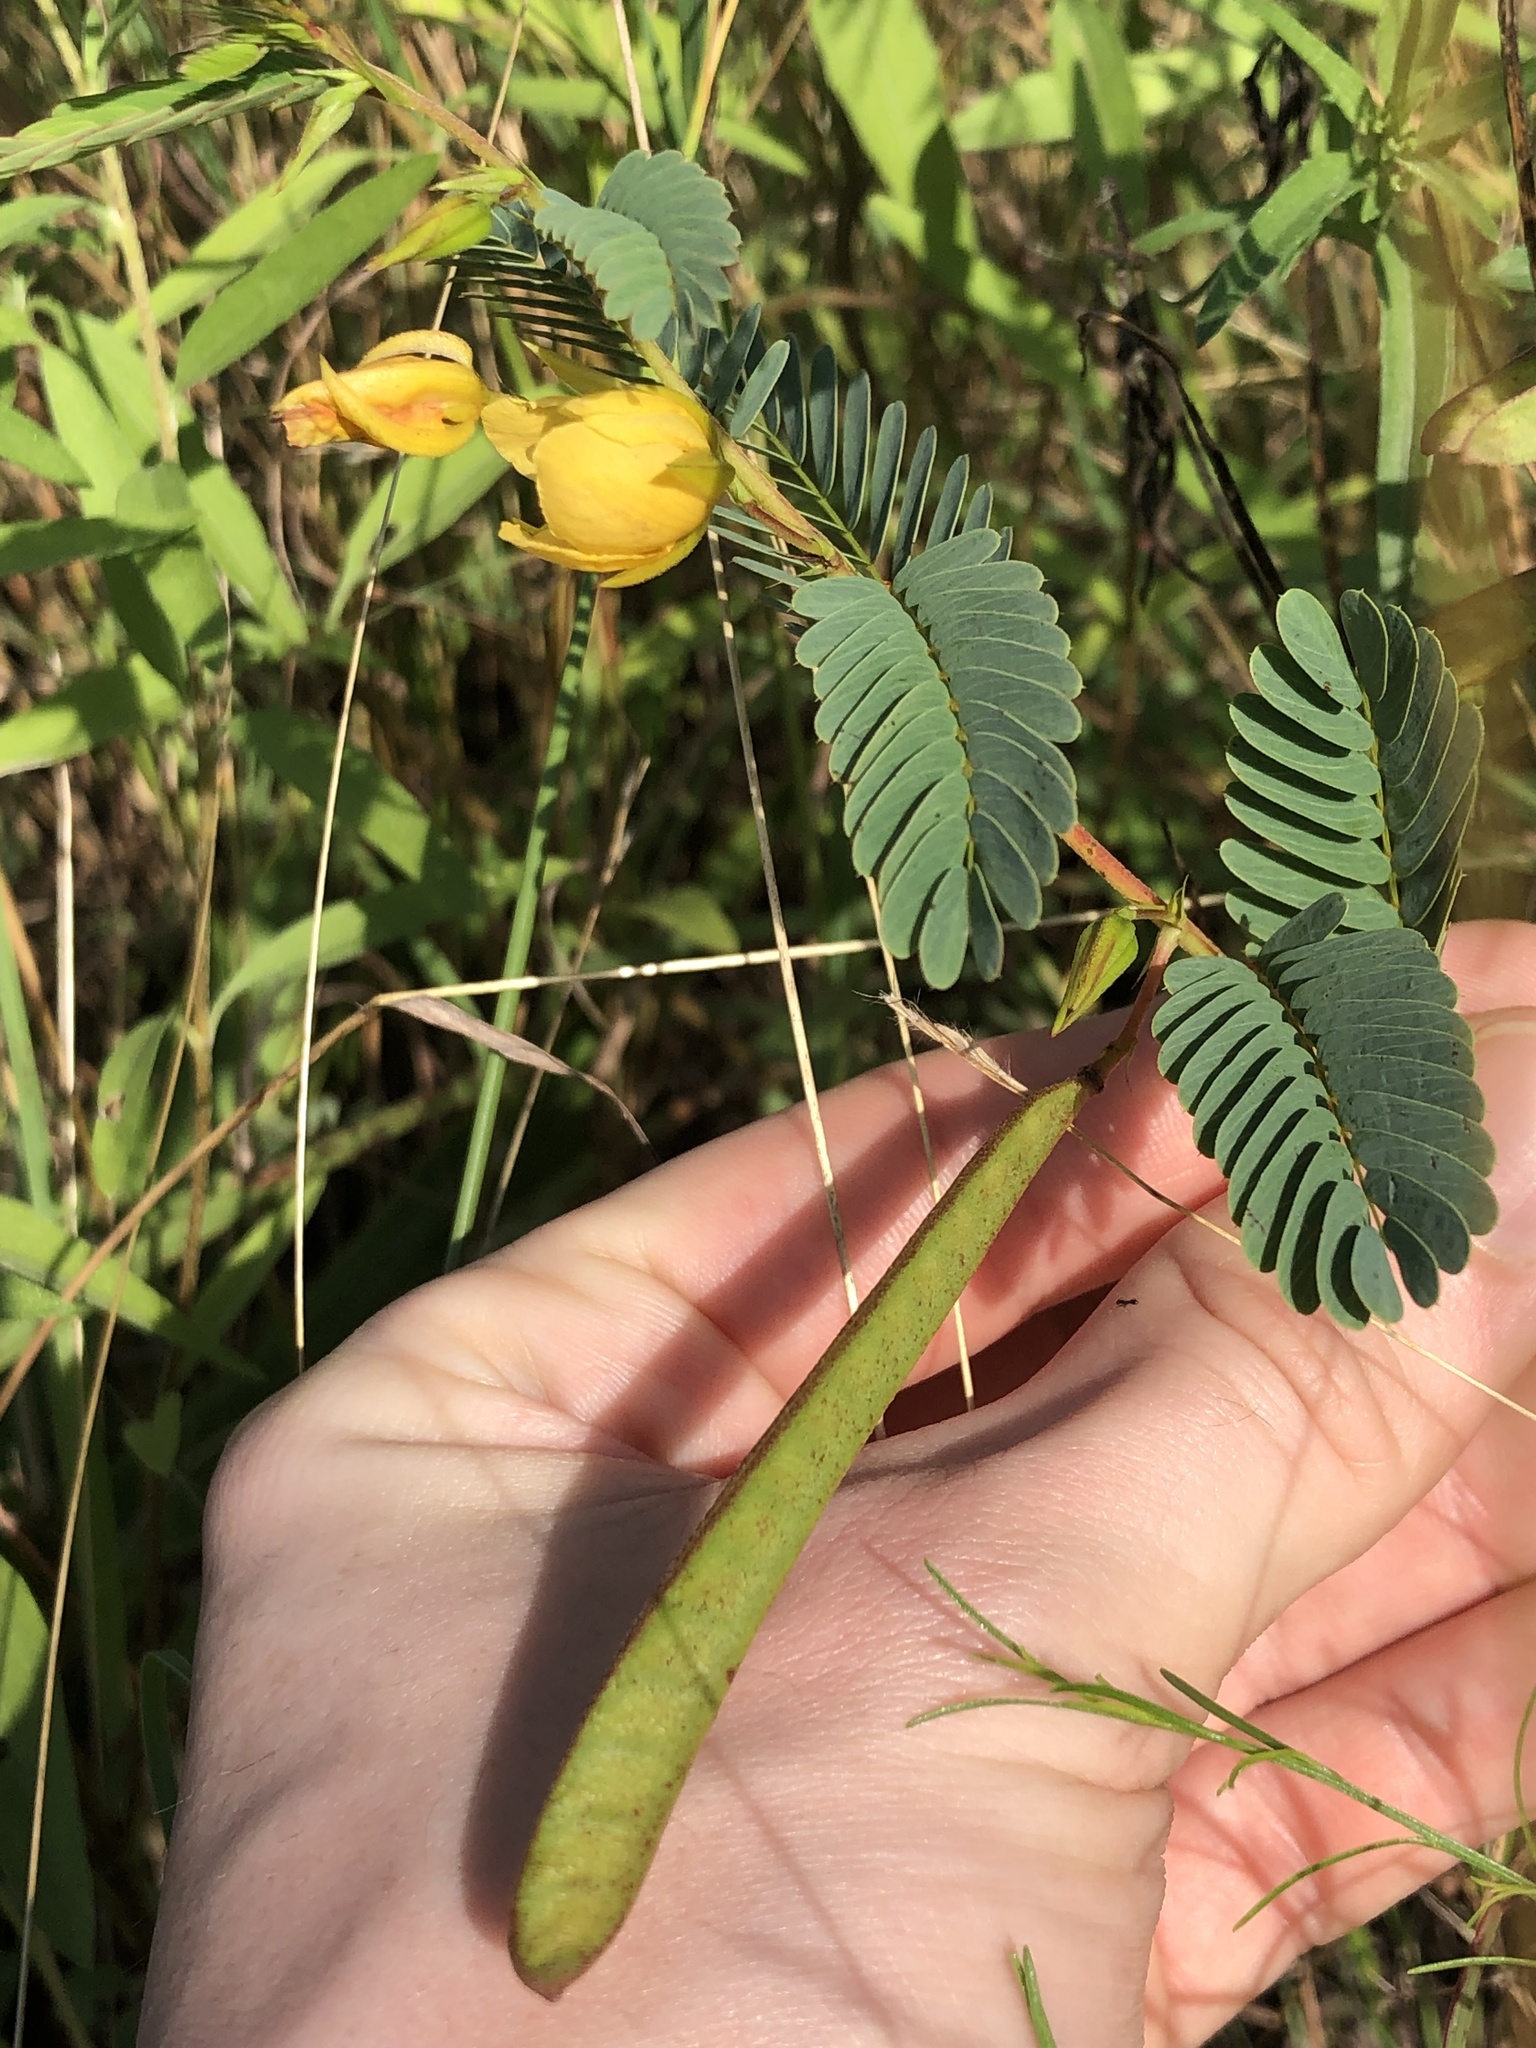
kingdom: Plantae
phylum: Tracheophyta
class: Magnoliopsida
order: Fabales
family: Fabaceae
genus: Chamaecrista
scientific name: Chamaecrista fasciculata
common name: Golden cassia
